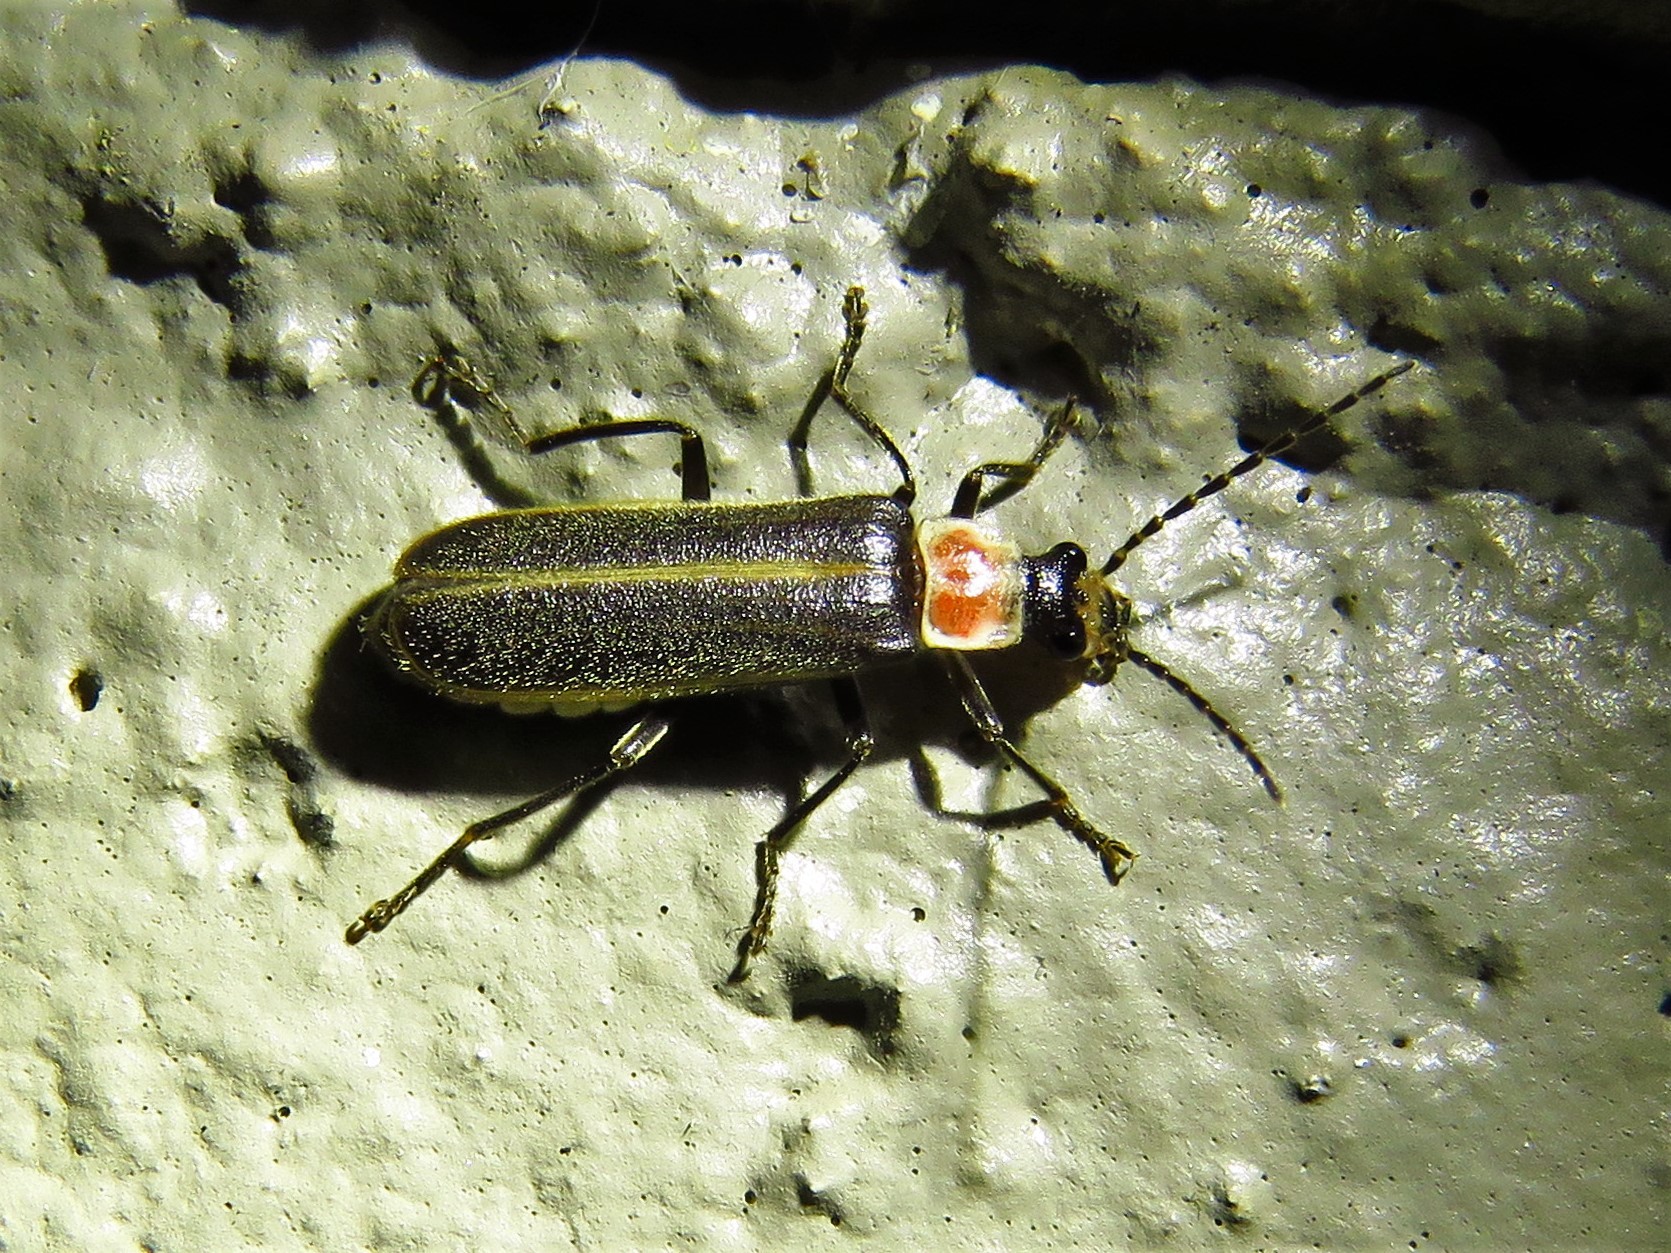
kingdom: Animalia
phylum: Arthropoda
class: Insecta
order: Coleoptera
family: Cantharidae
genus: Podabrus
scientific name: Podabrus quadratus
